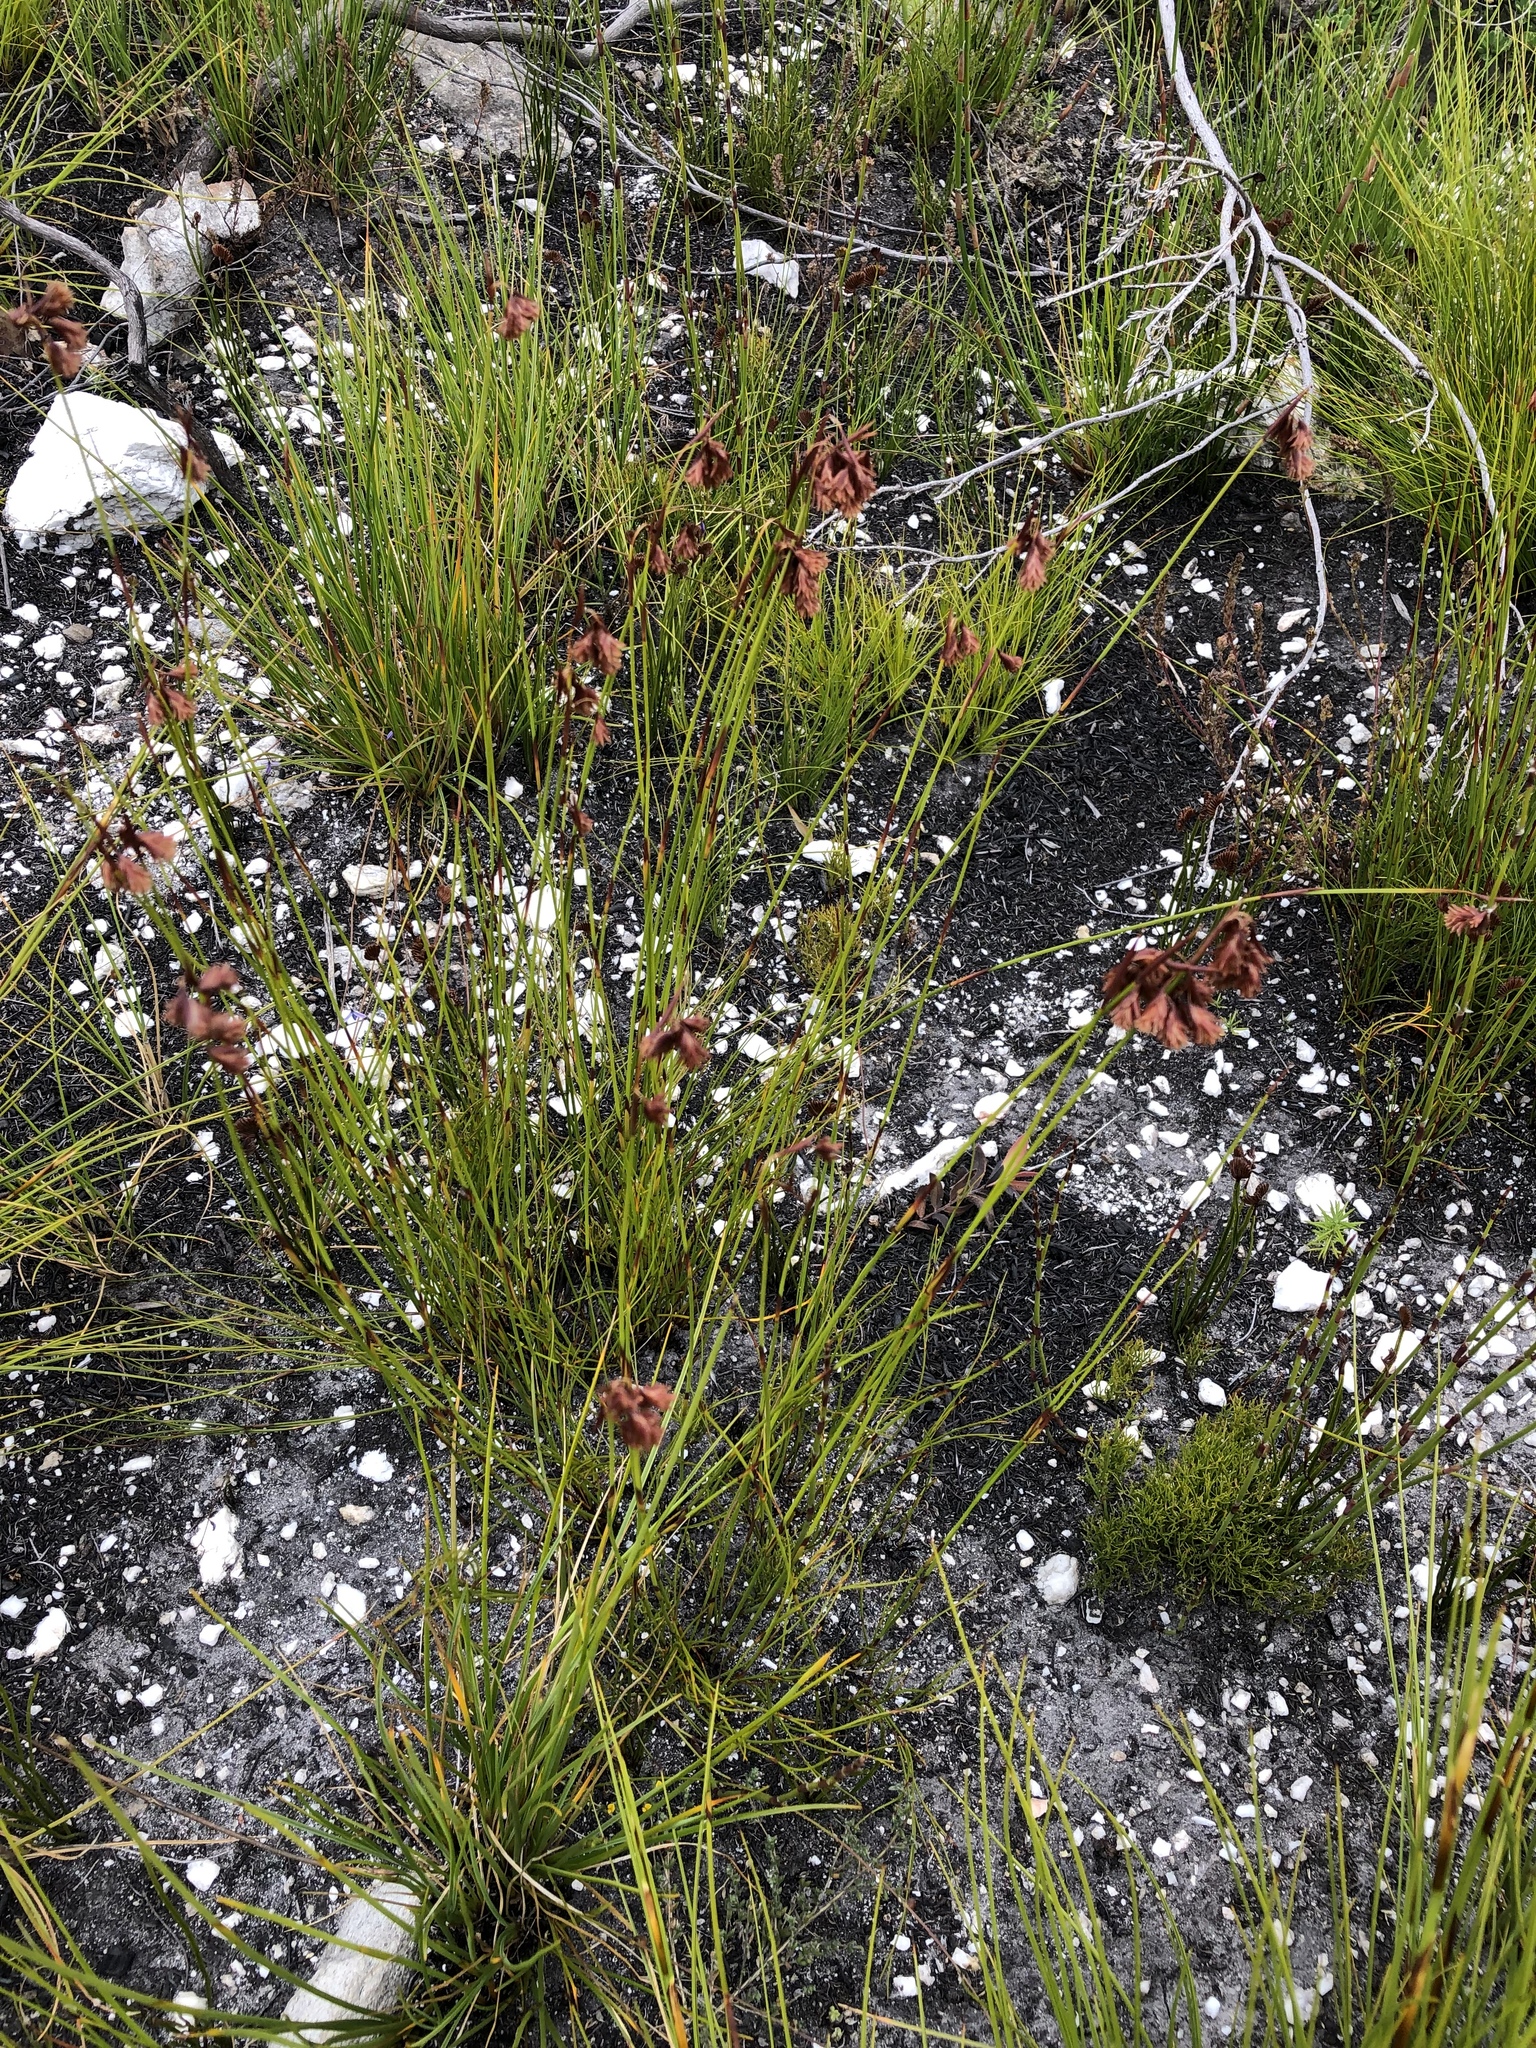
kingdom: Plantae
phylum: Tracheophyta
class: Liliopsida
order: Poales
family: Restionaceae
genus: Staberoha
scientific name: Staberoha cernua
